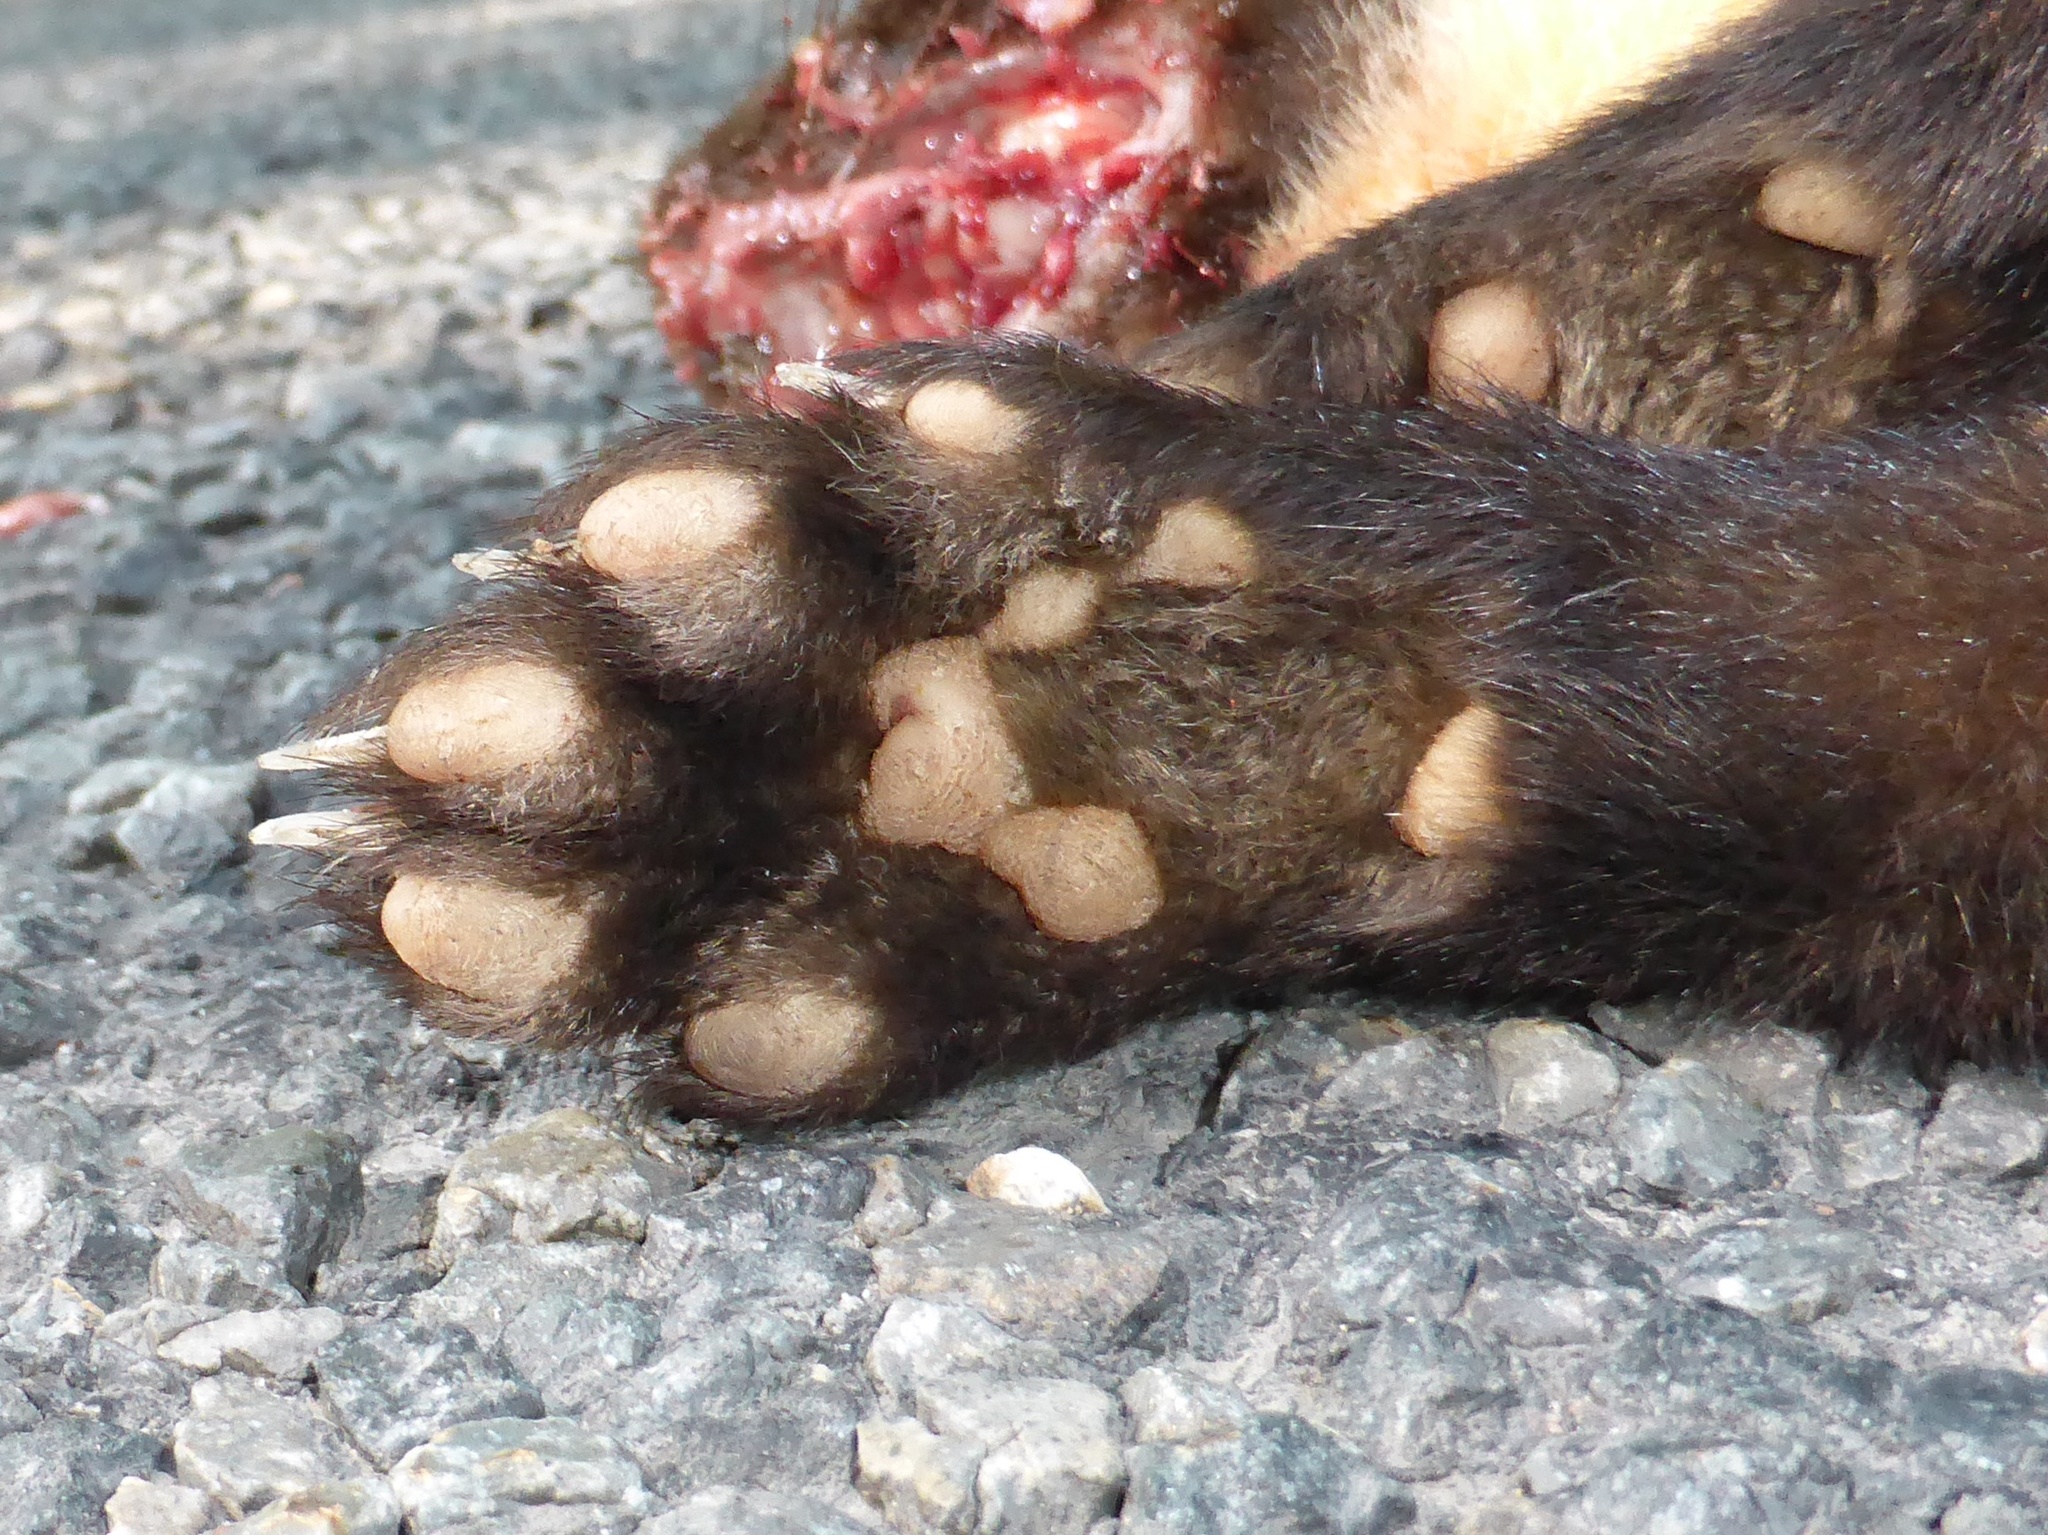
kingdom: Animalia
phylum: Chordata
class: Mammalia
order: Carnivora
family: Mustelidae
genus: Martes
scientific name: Martes martes
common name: European pine marten
